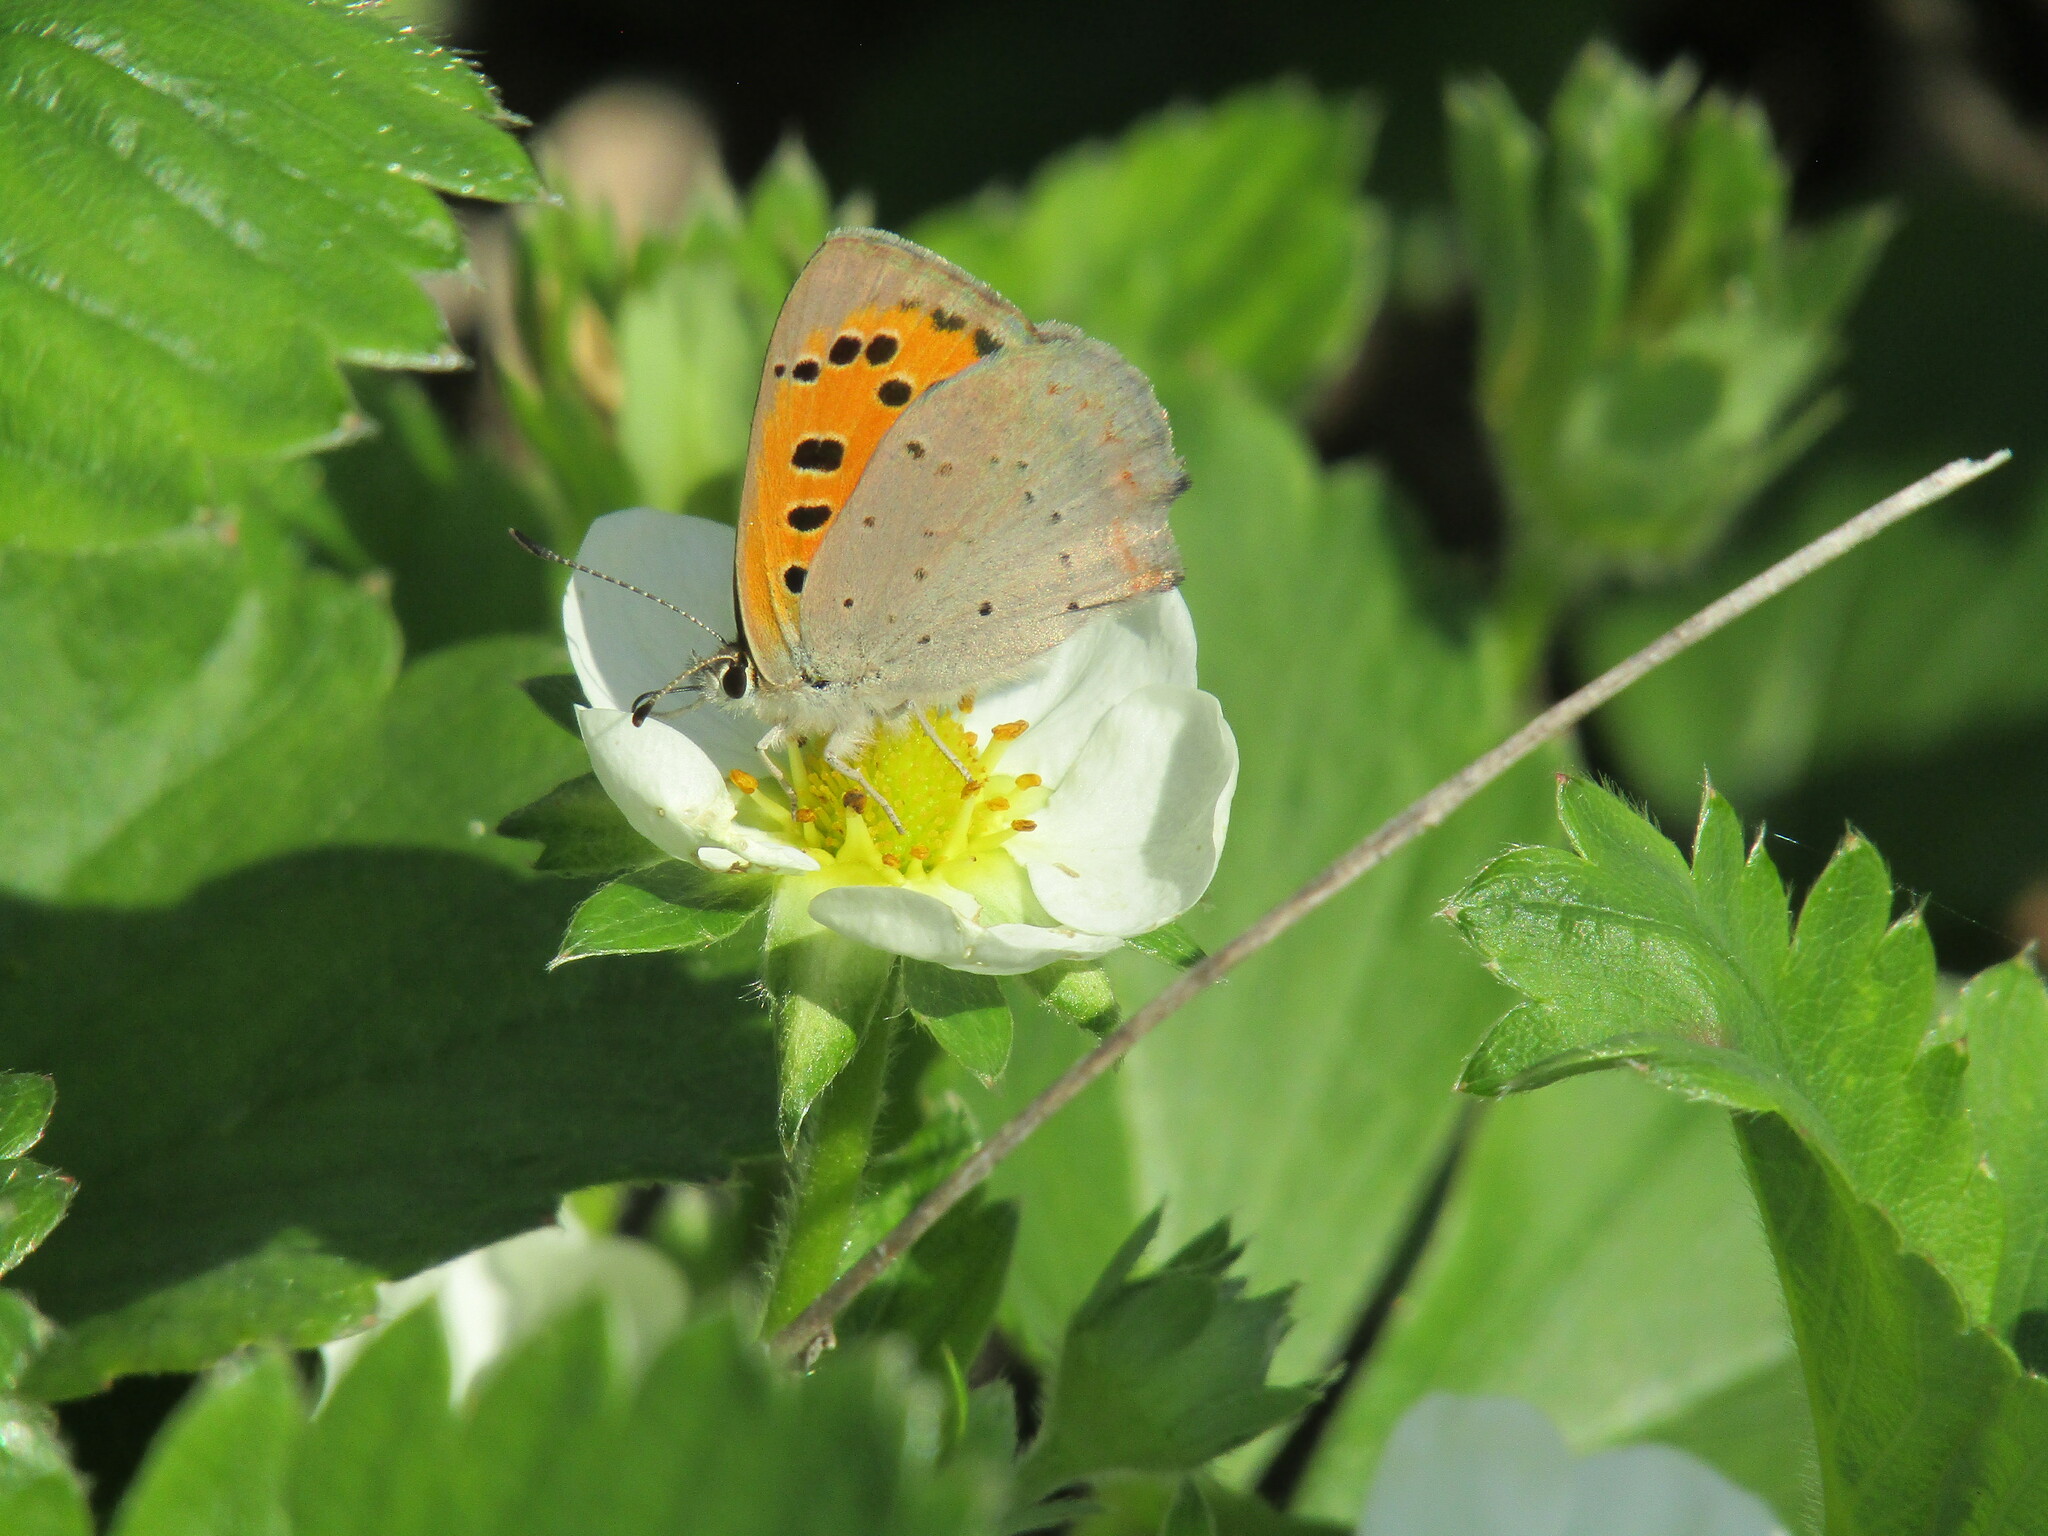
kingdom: Animalia
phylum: Arthropoda
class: Insecta
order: Lepidoptera
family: Lycaenidae
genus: Lycaena
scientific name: Lycaena phlaeas
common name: Small copper
